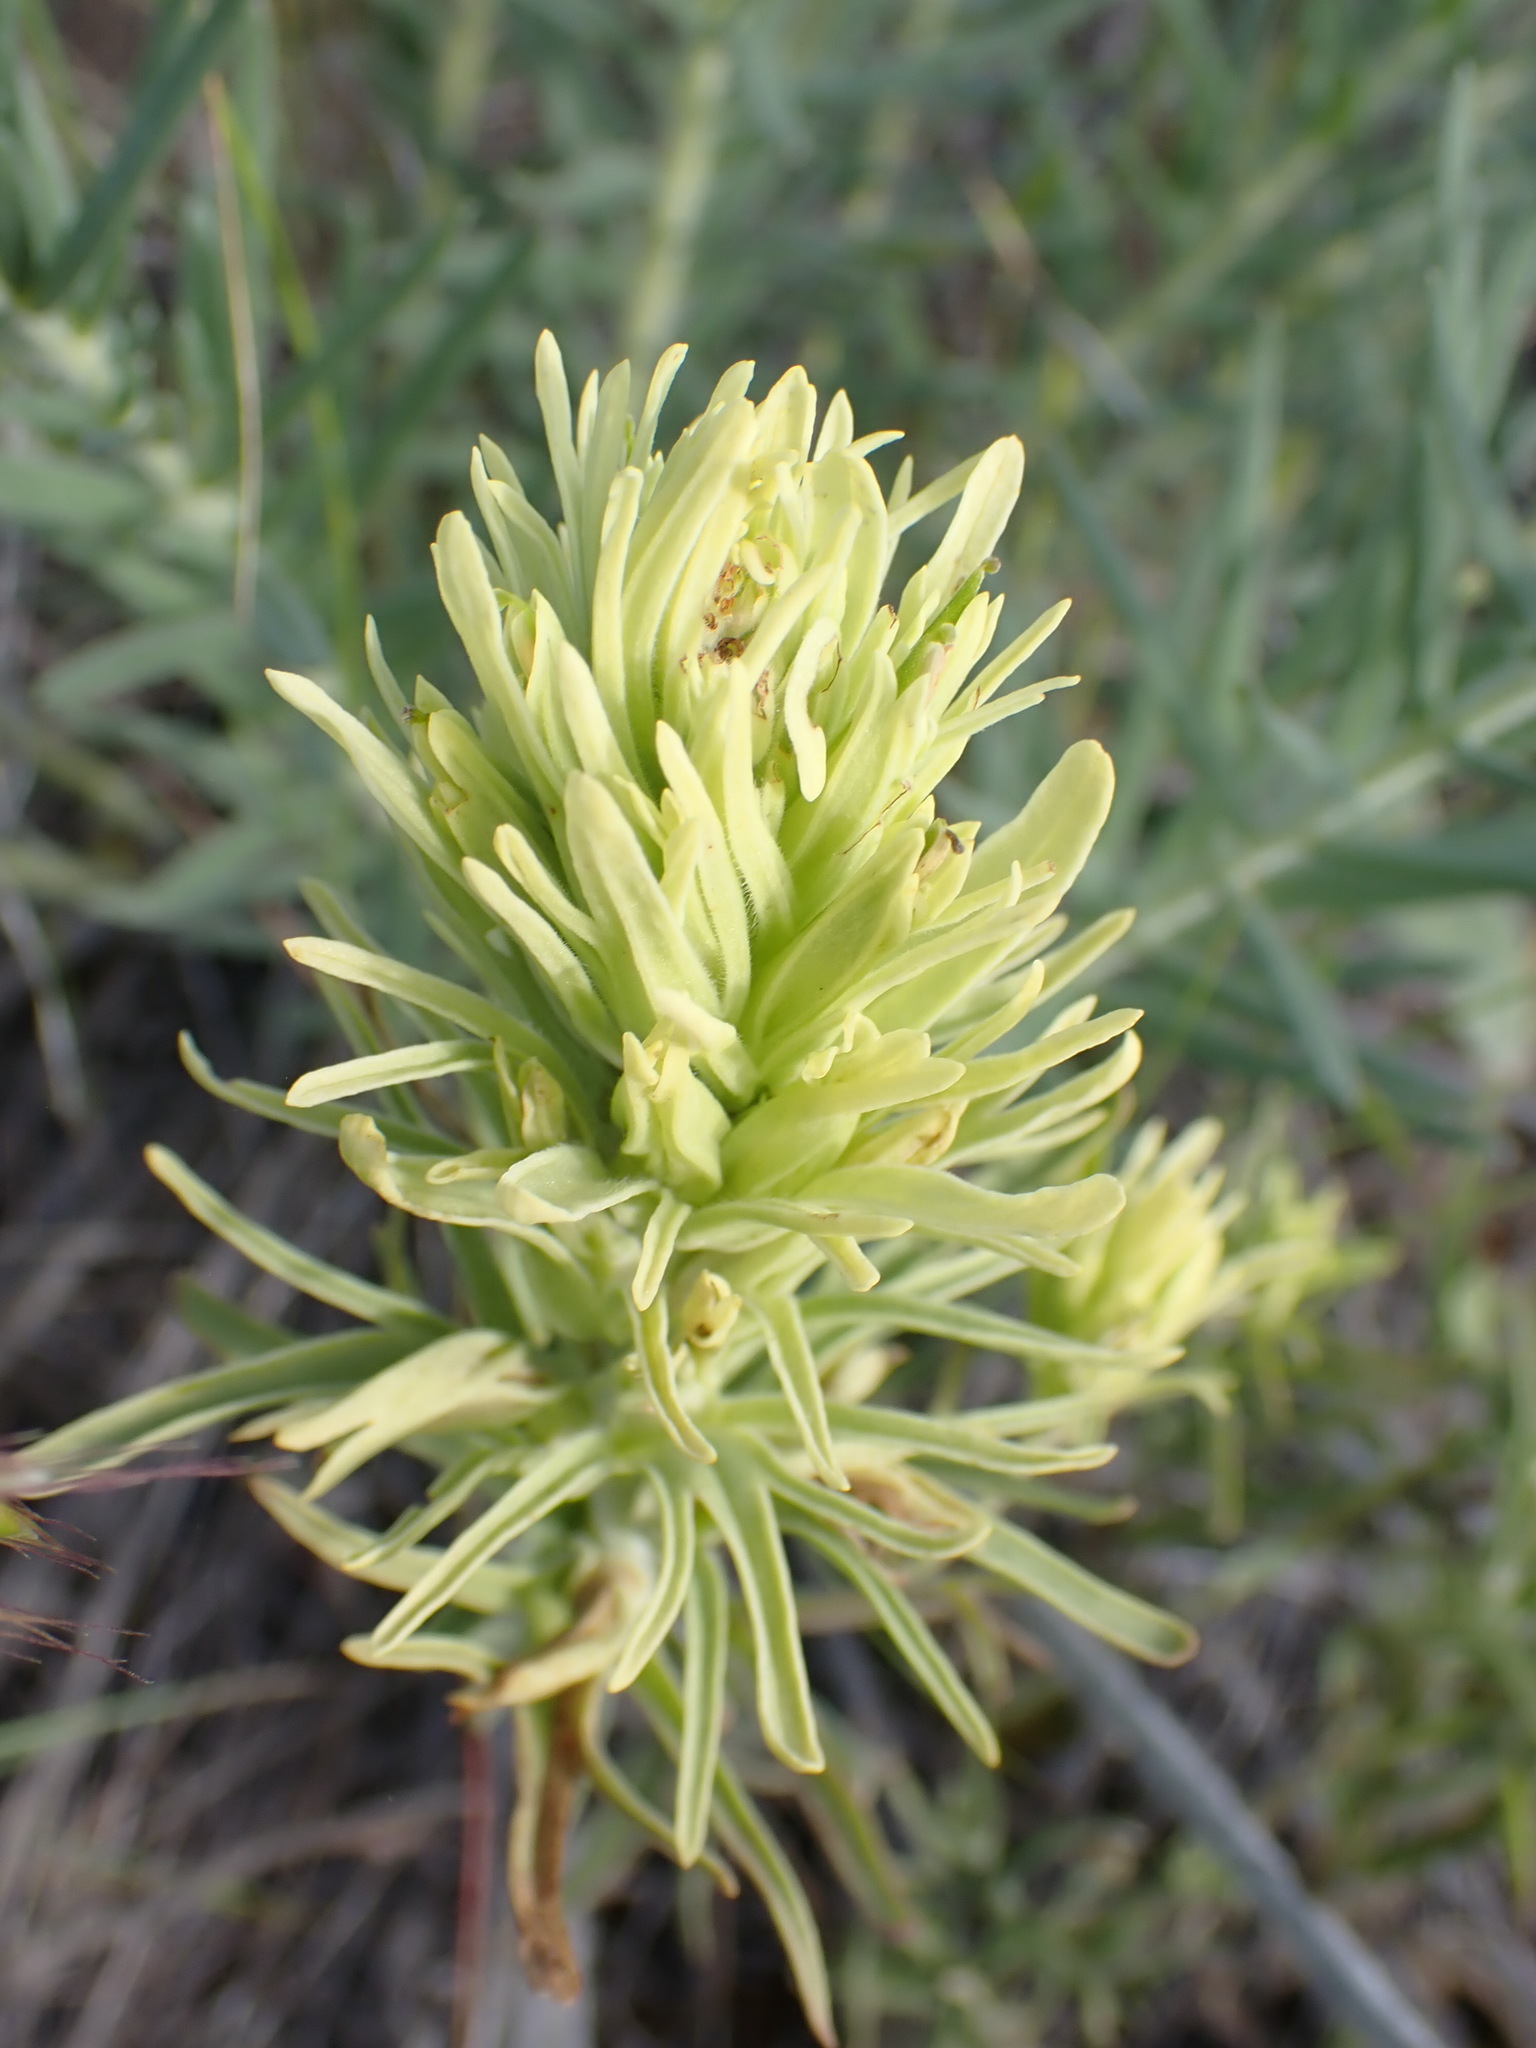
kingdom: Plantae
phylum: Tracheophyta
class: Magnoliopsida
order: Lamiales
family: Orobanchaceae
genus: Castilleja
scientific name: Castilleja thompsonii
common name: Thompson's paintbrush
